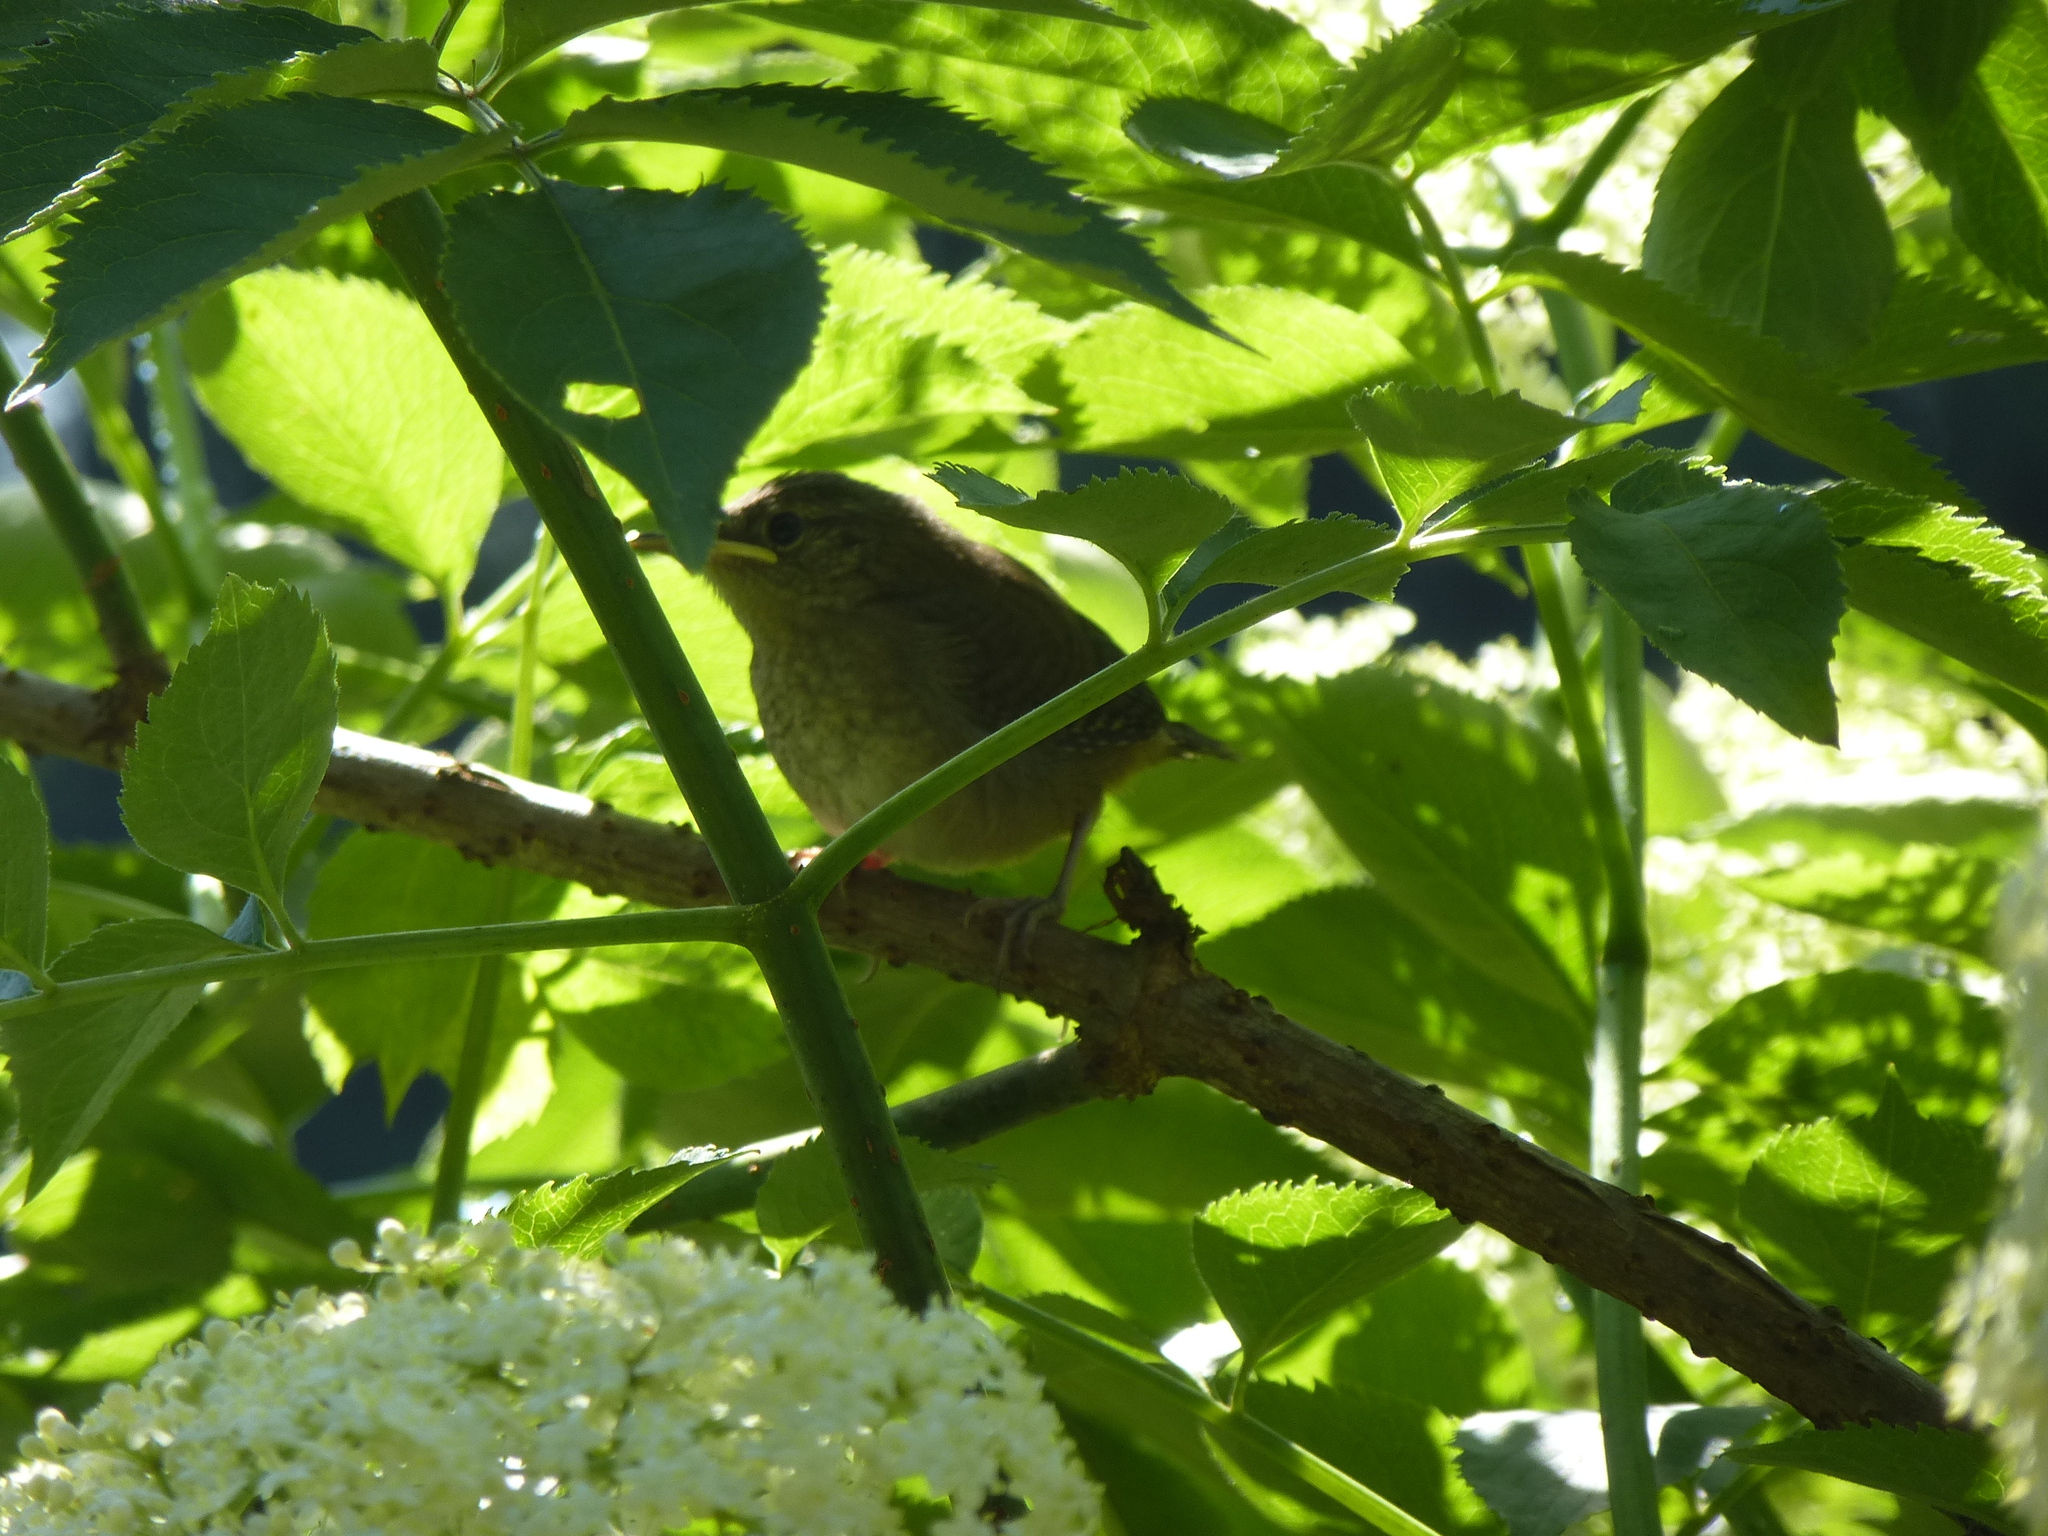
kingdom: Animalia
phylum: Chordata
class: Aves
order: Passeriformes
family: Troglodytidae
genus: Troglodytes
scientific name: Troglodytes aedon
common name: House wren
